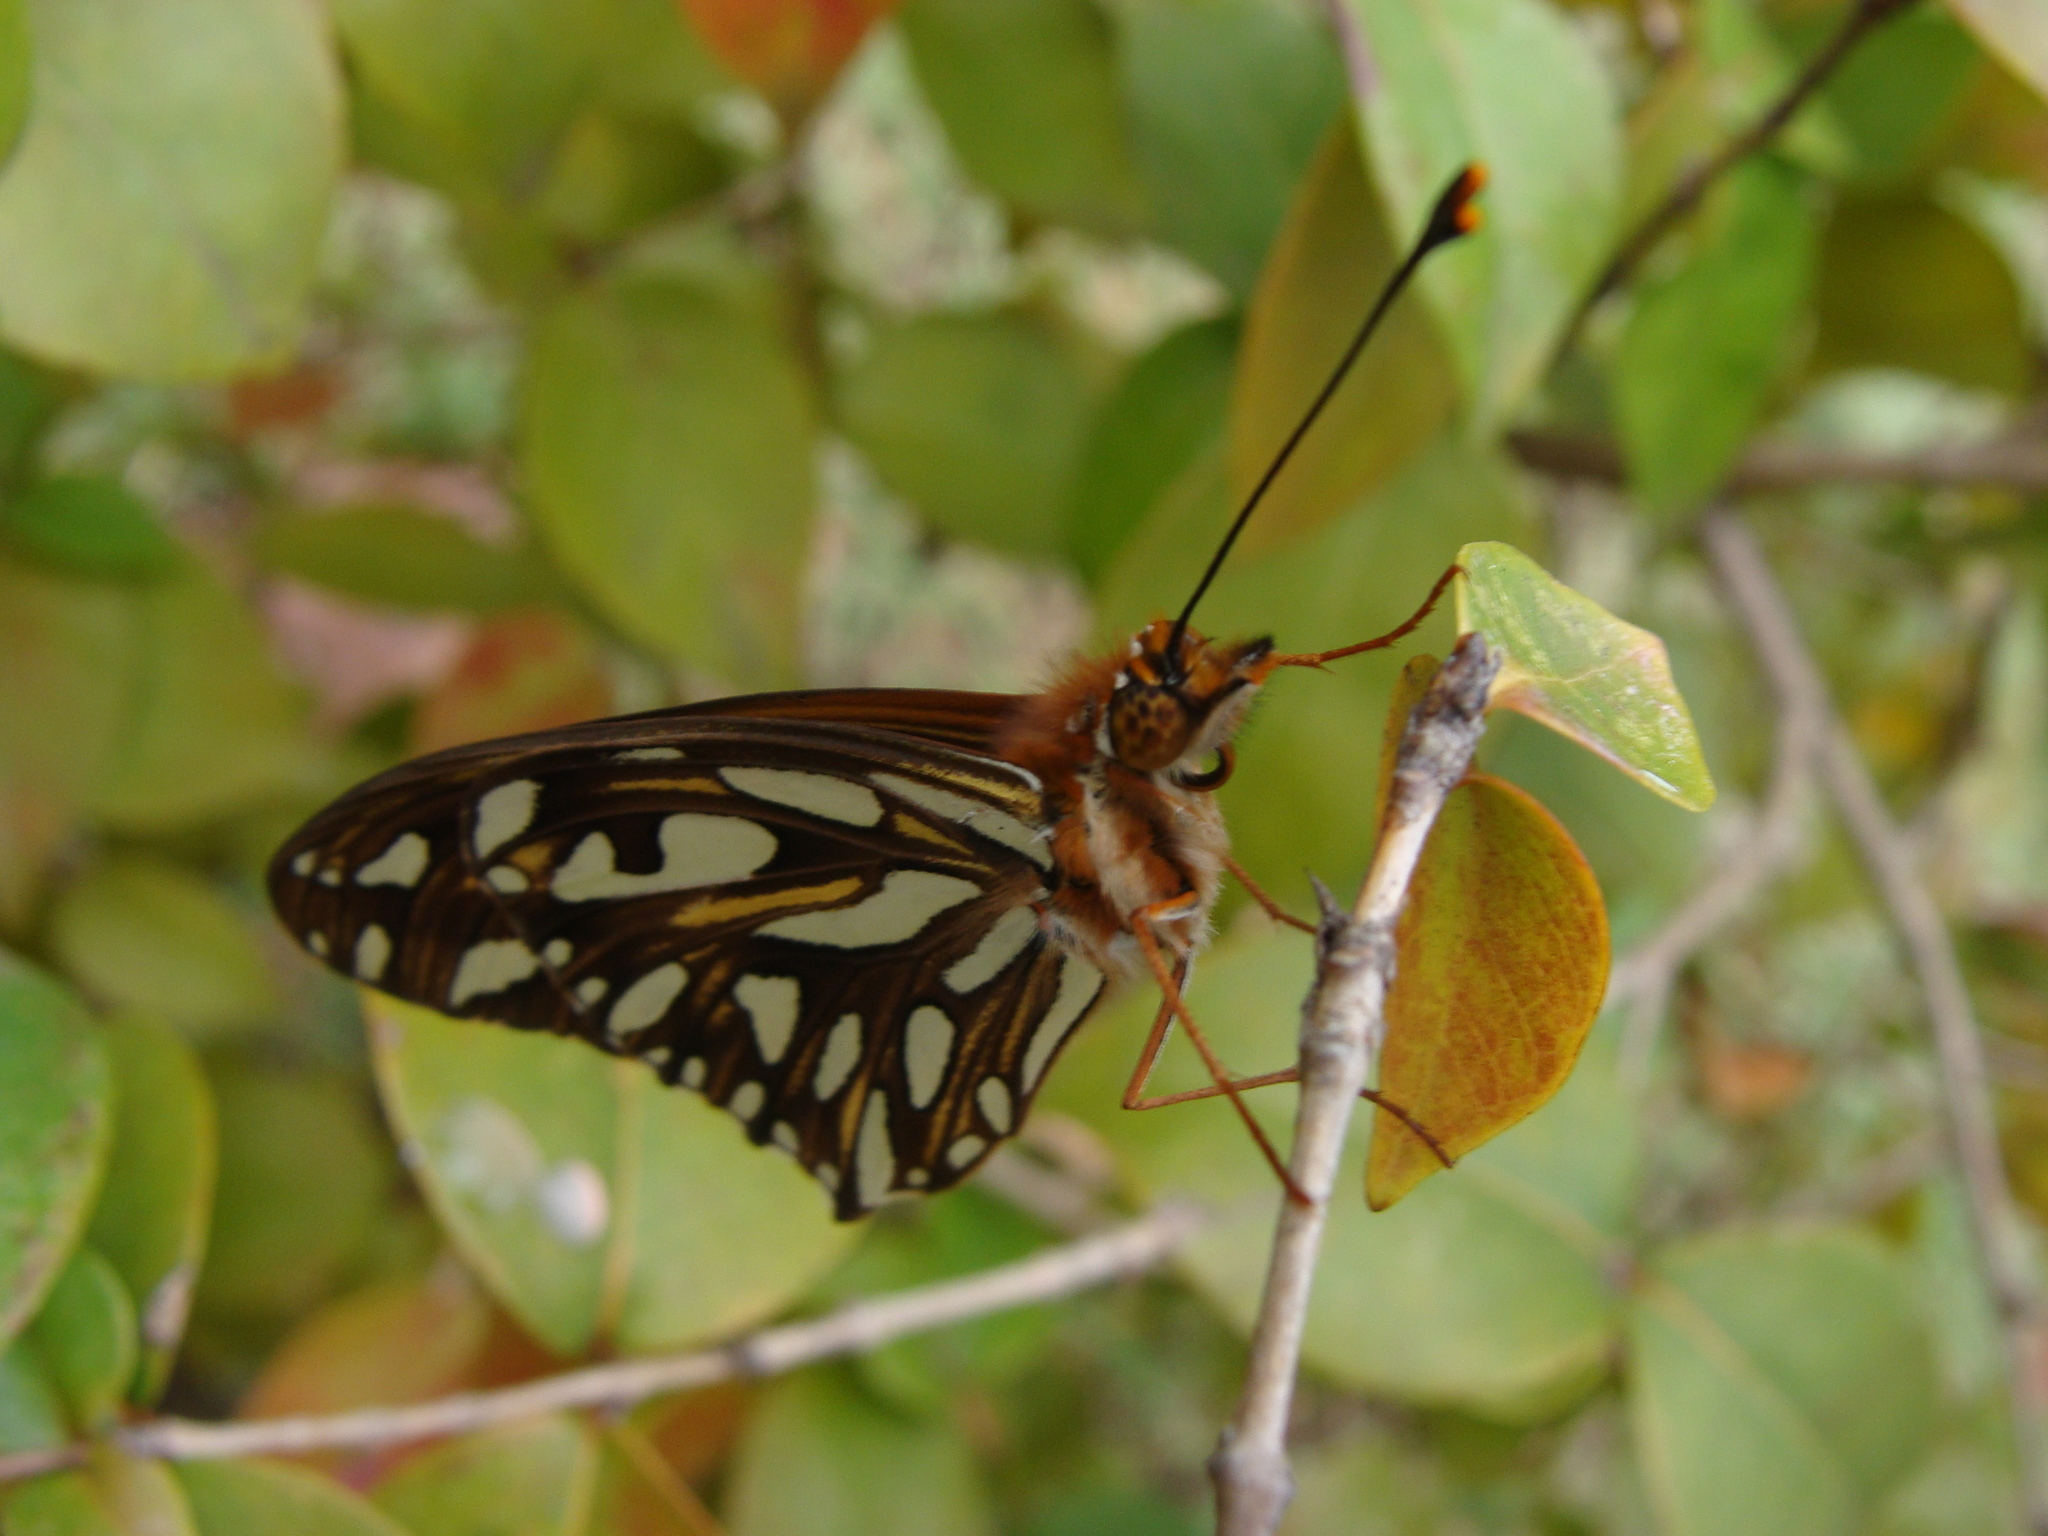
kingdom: Animalia
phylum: Arthropoda
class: Insecta
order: Lepidoptera
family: Nymphalidae
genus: Dione
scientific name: Dione vanillae
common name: Gulf fritillary
